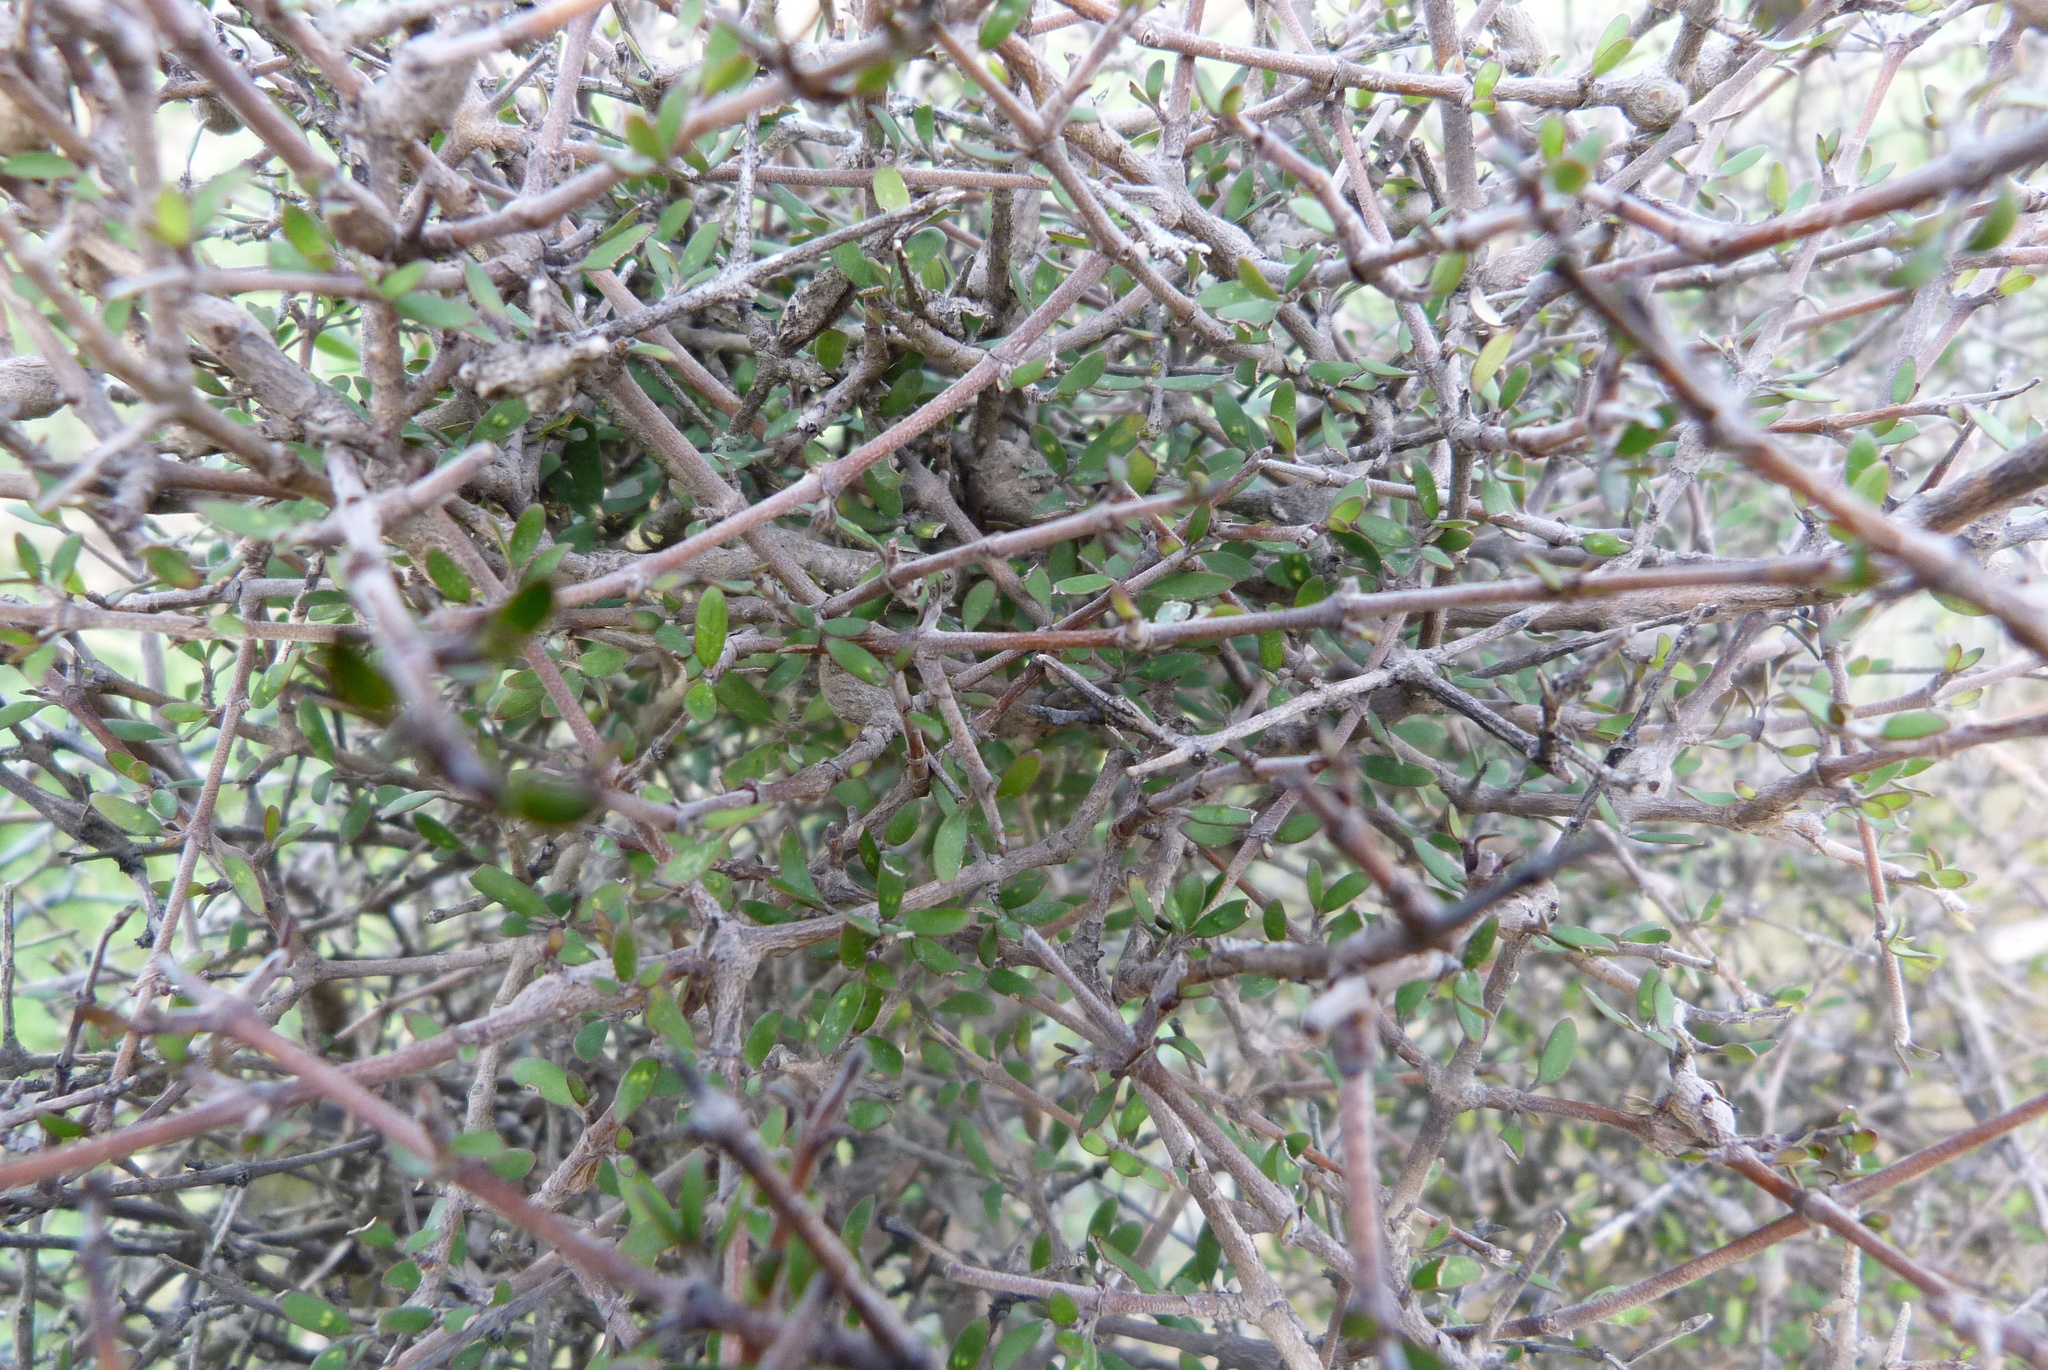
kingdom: Plantae
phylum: Tracheophyta
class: Magnoliopsida
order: Gentianales
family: Rubiaceae
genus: Coprosma
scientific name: Coprosma propinqua
